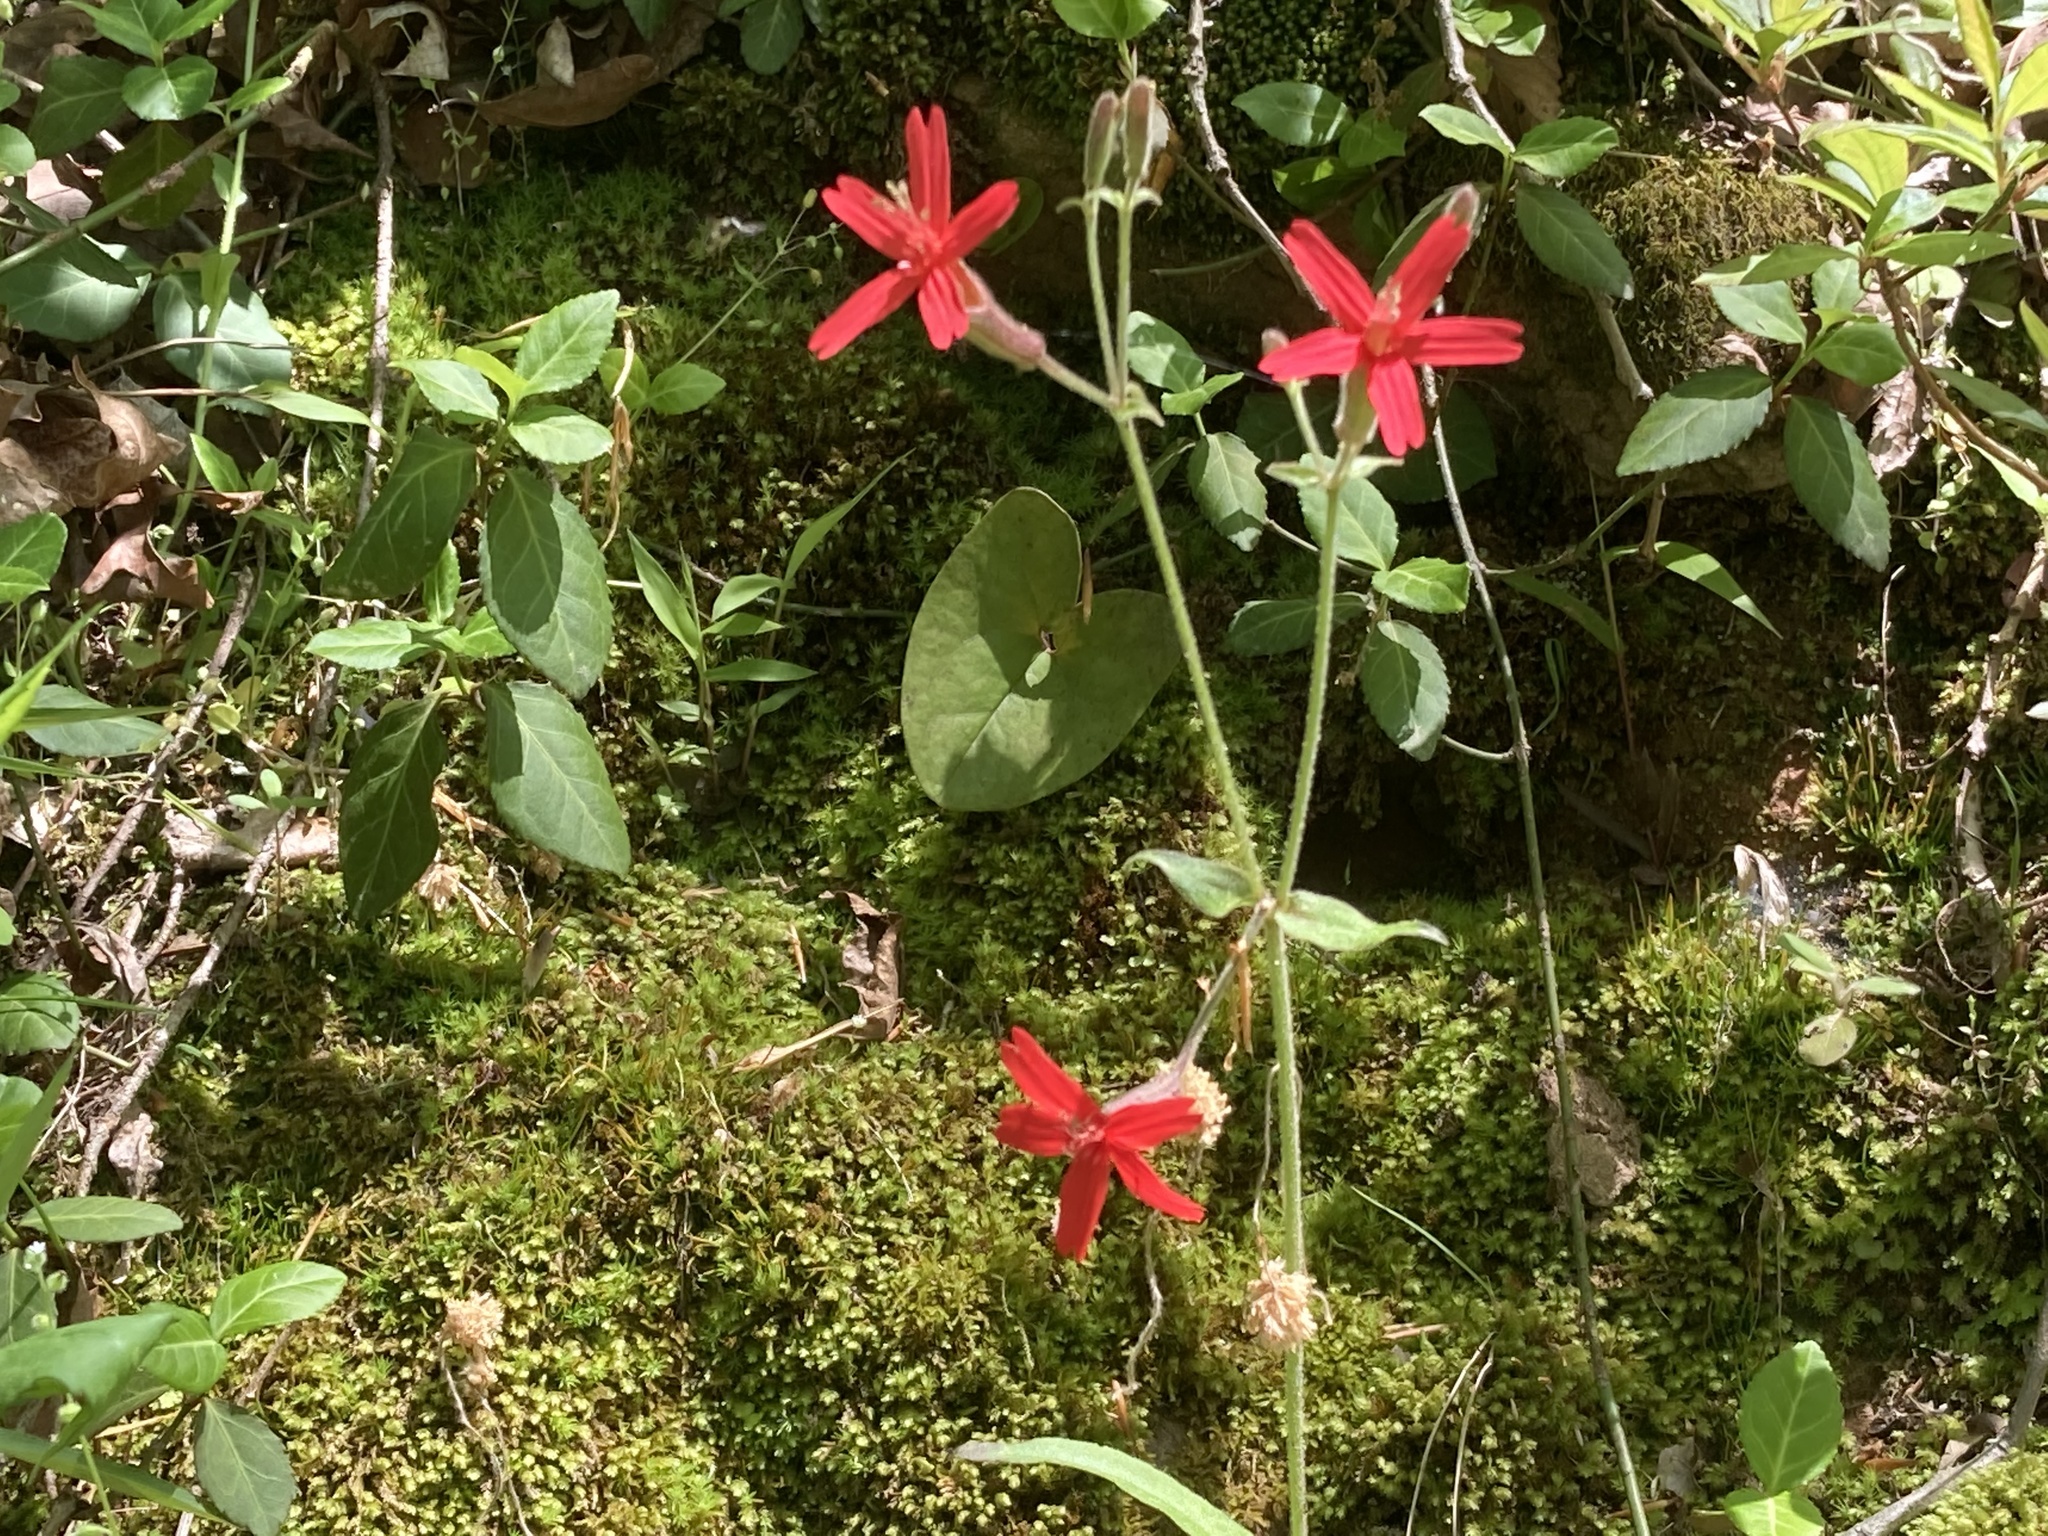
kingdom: Plantae
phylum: Tracheophyta
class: Magnoliopsida
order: Caryophyllales
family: Caryophyllaceae
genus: Silene
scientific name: Silene virginica
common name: Fire-pink
